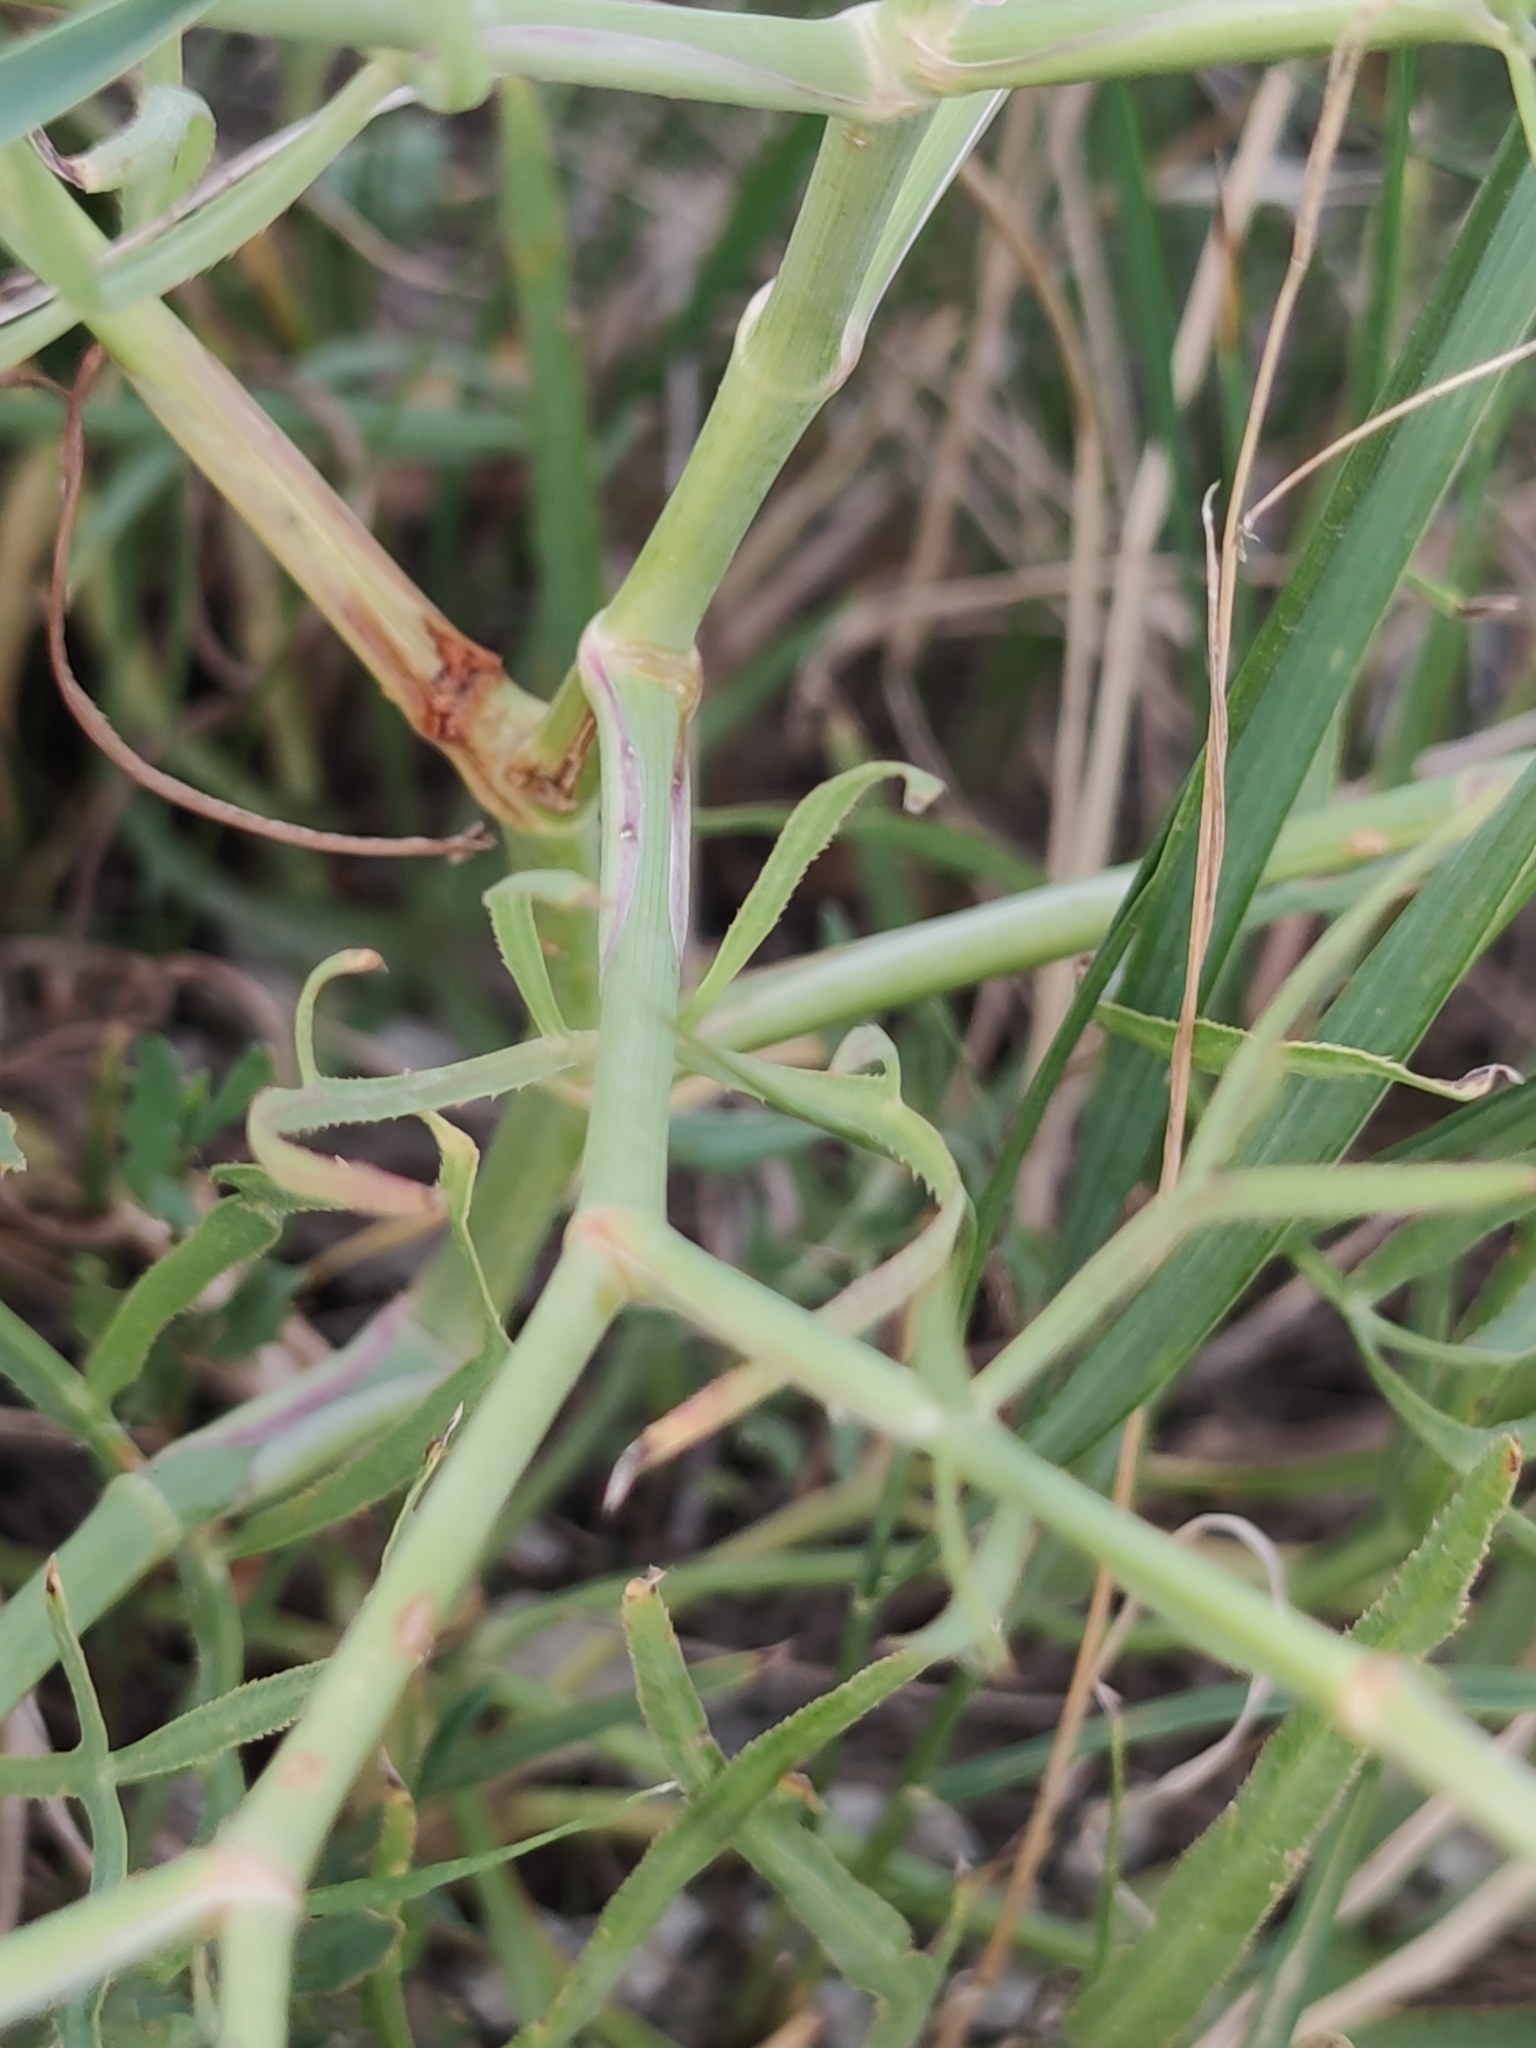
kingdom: Plantae
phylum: Tracheophyta
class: Magnoliopsida
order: Apiales
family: Apiaceae
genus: Falcaria
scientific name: Falcaria vulgaris
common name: Longleaf
